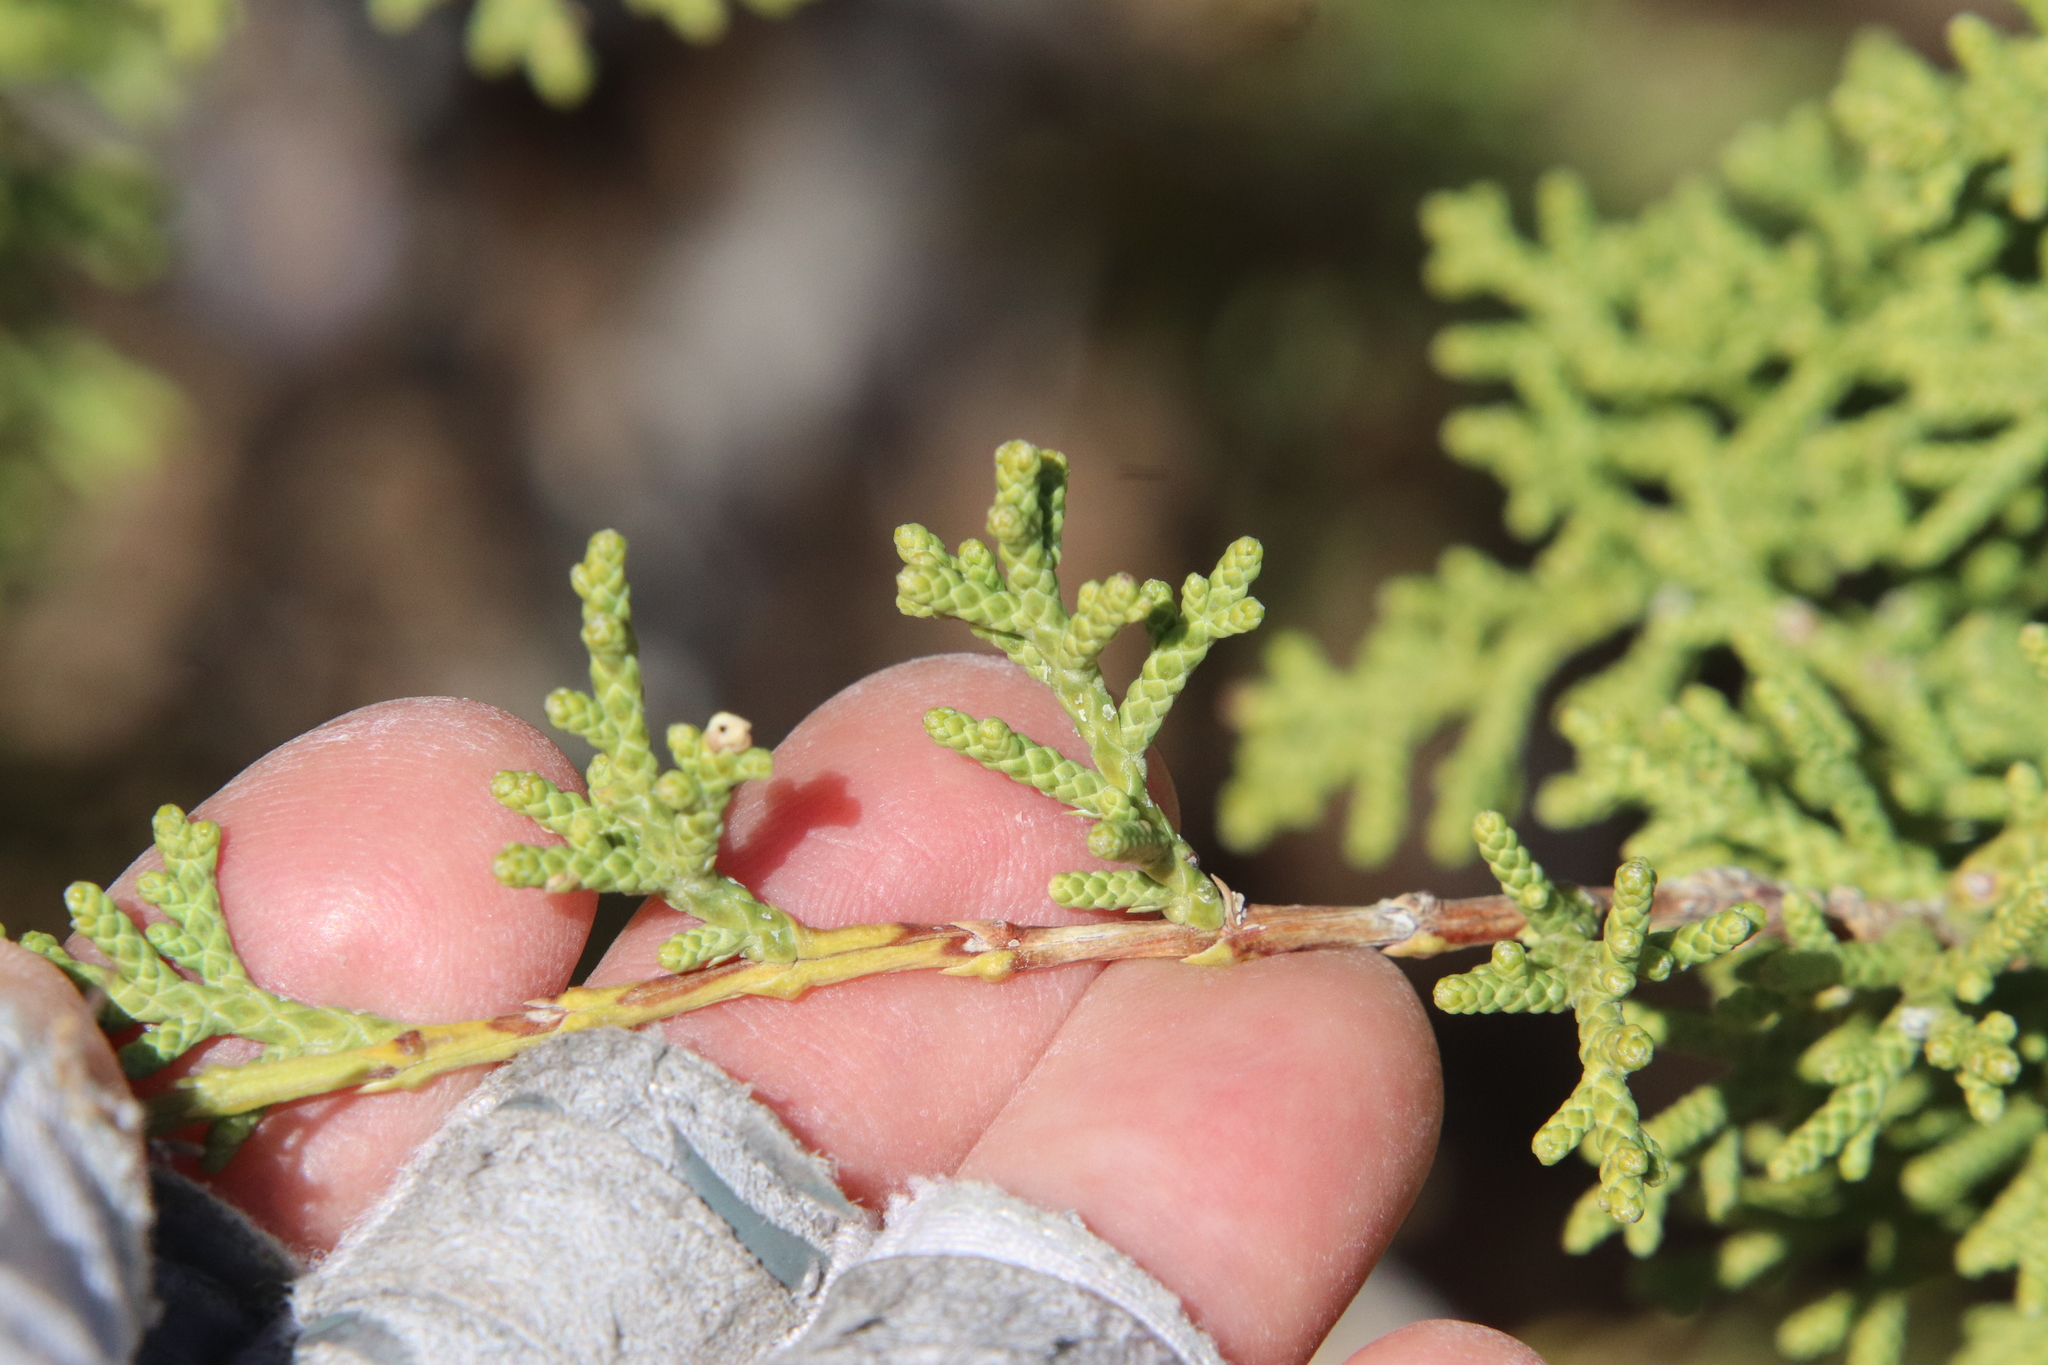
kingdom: Plantae
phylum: Tracheophyta
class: Pinopsida
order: Pinales
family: Cupressaceae
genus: Juniperus
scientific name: Juniperus californica
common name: California juniper
